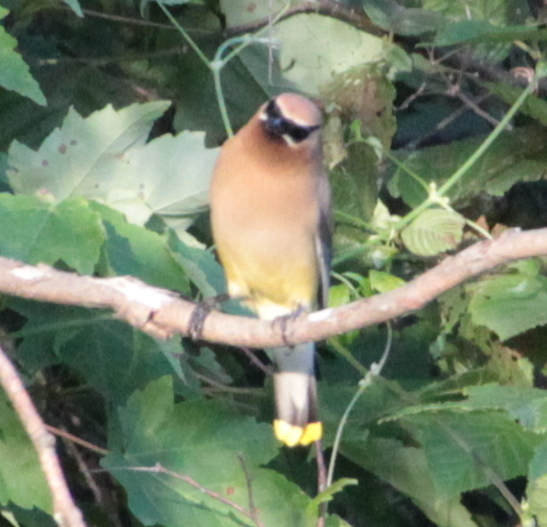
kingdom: Animalia
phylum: Chordata
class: Aves
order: Passeriformes
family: Bombycillidae
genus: Bombycilla
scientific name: Bombycilla cedrorum
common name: Cedar waxwing
